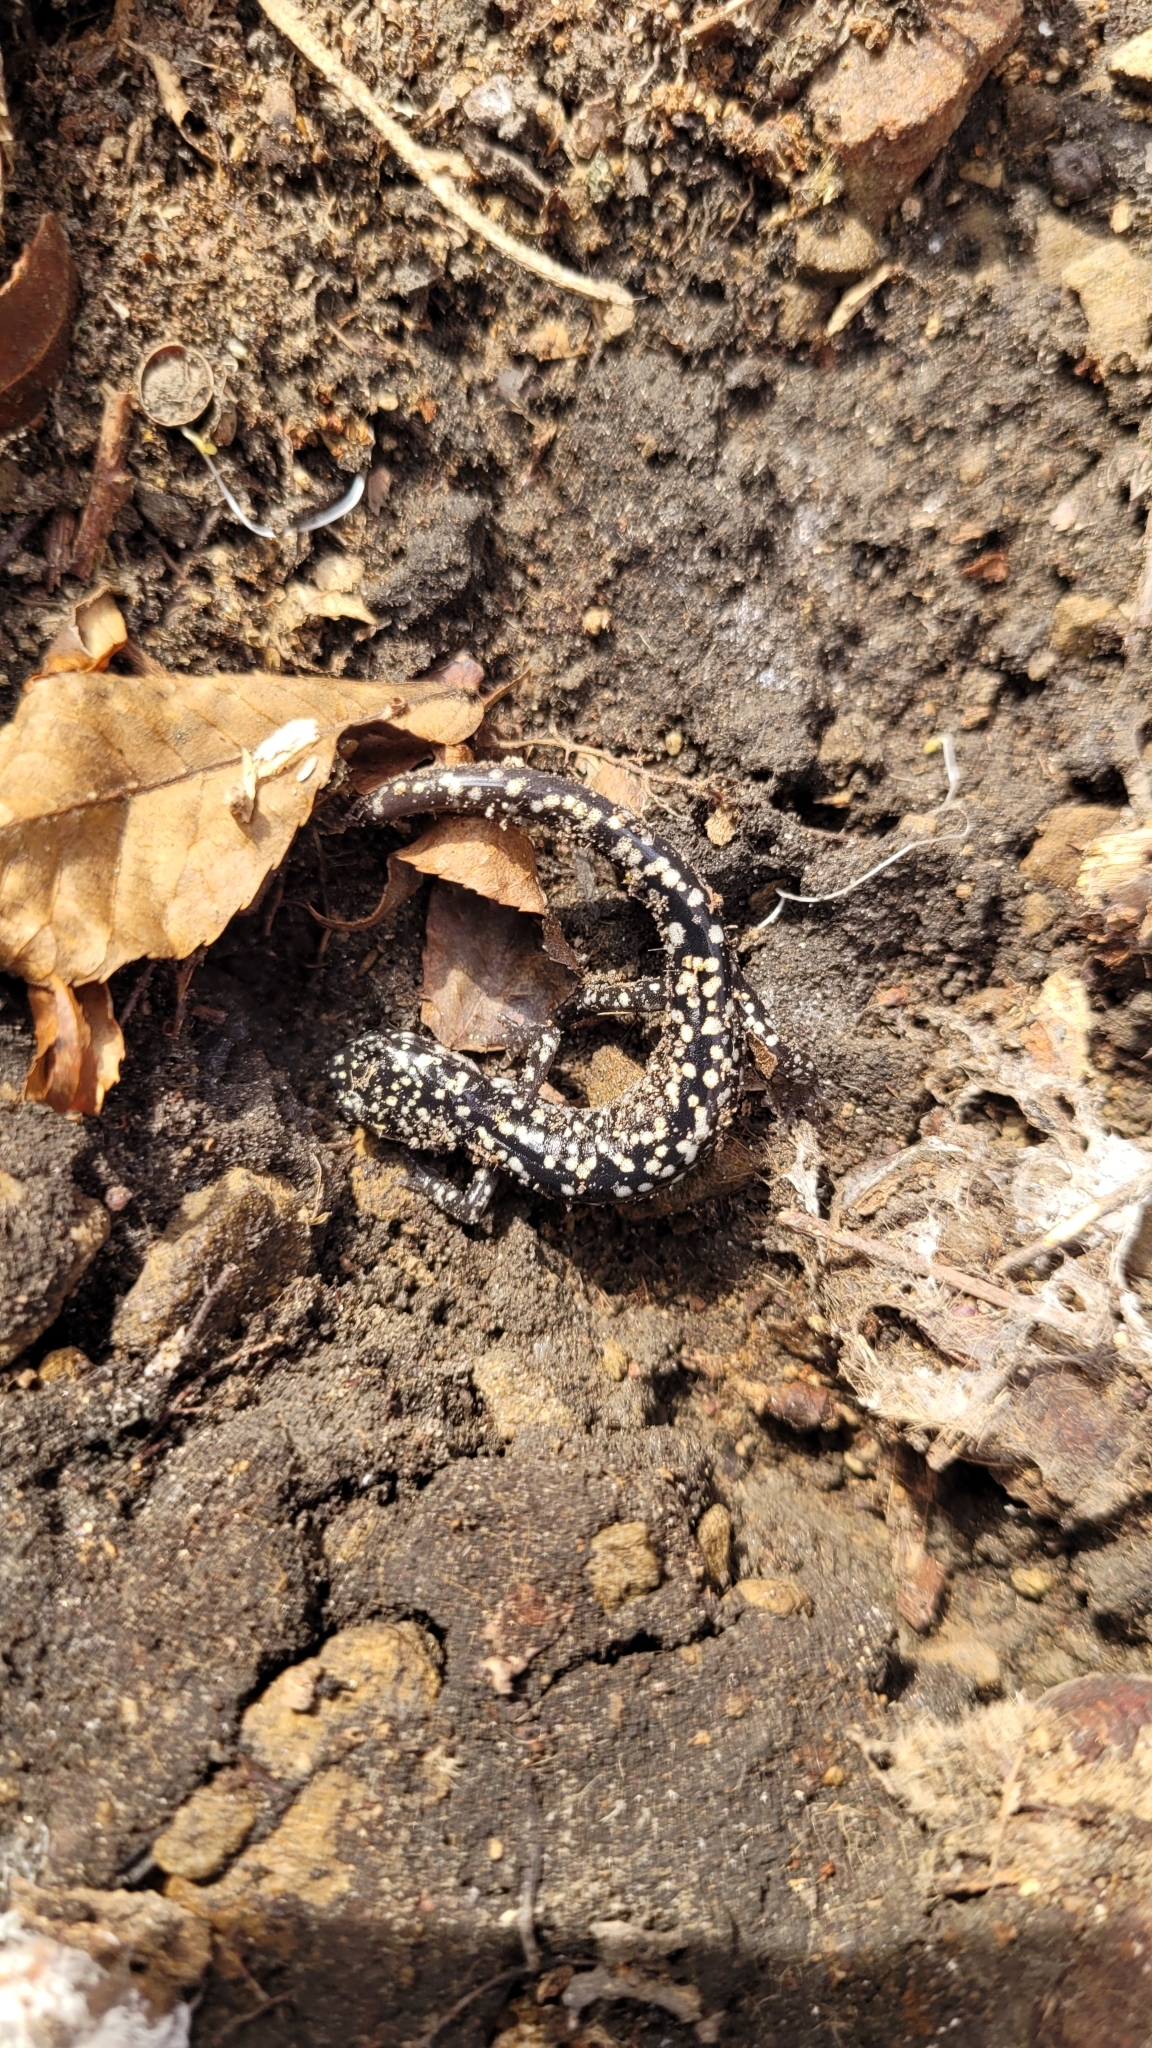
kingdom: Animalia
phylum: Chordata
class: Amphibia
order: Caudata
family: Plethodontidae
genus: Plethodon
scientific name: Plethodon glutinosus
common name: Northern slimy salamander
